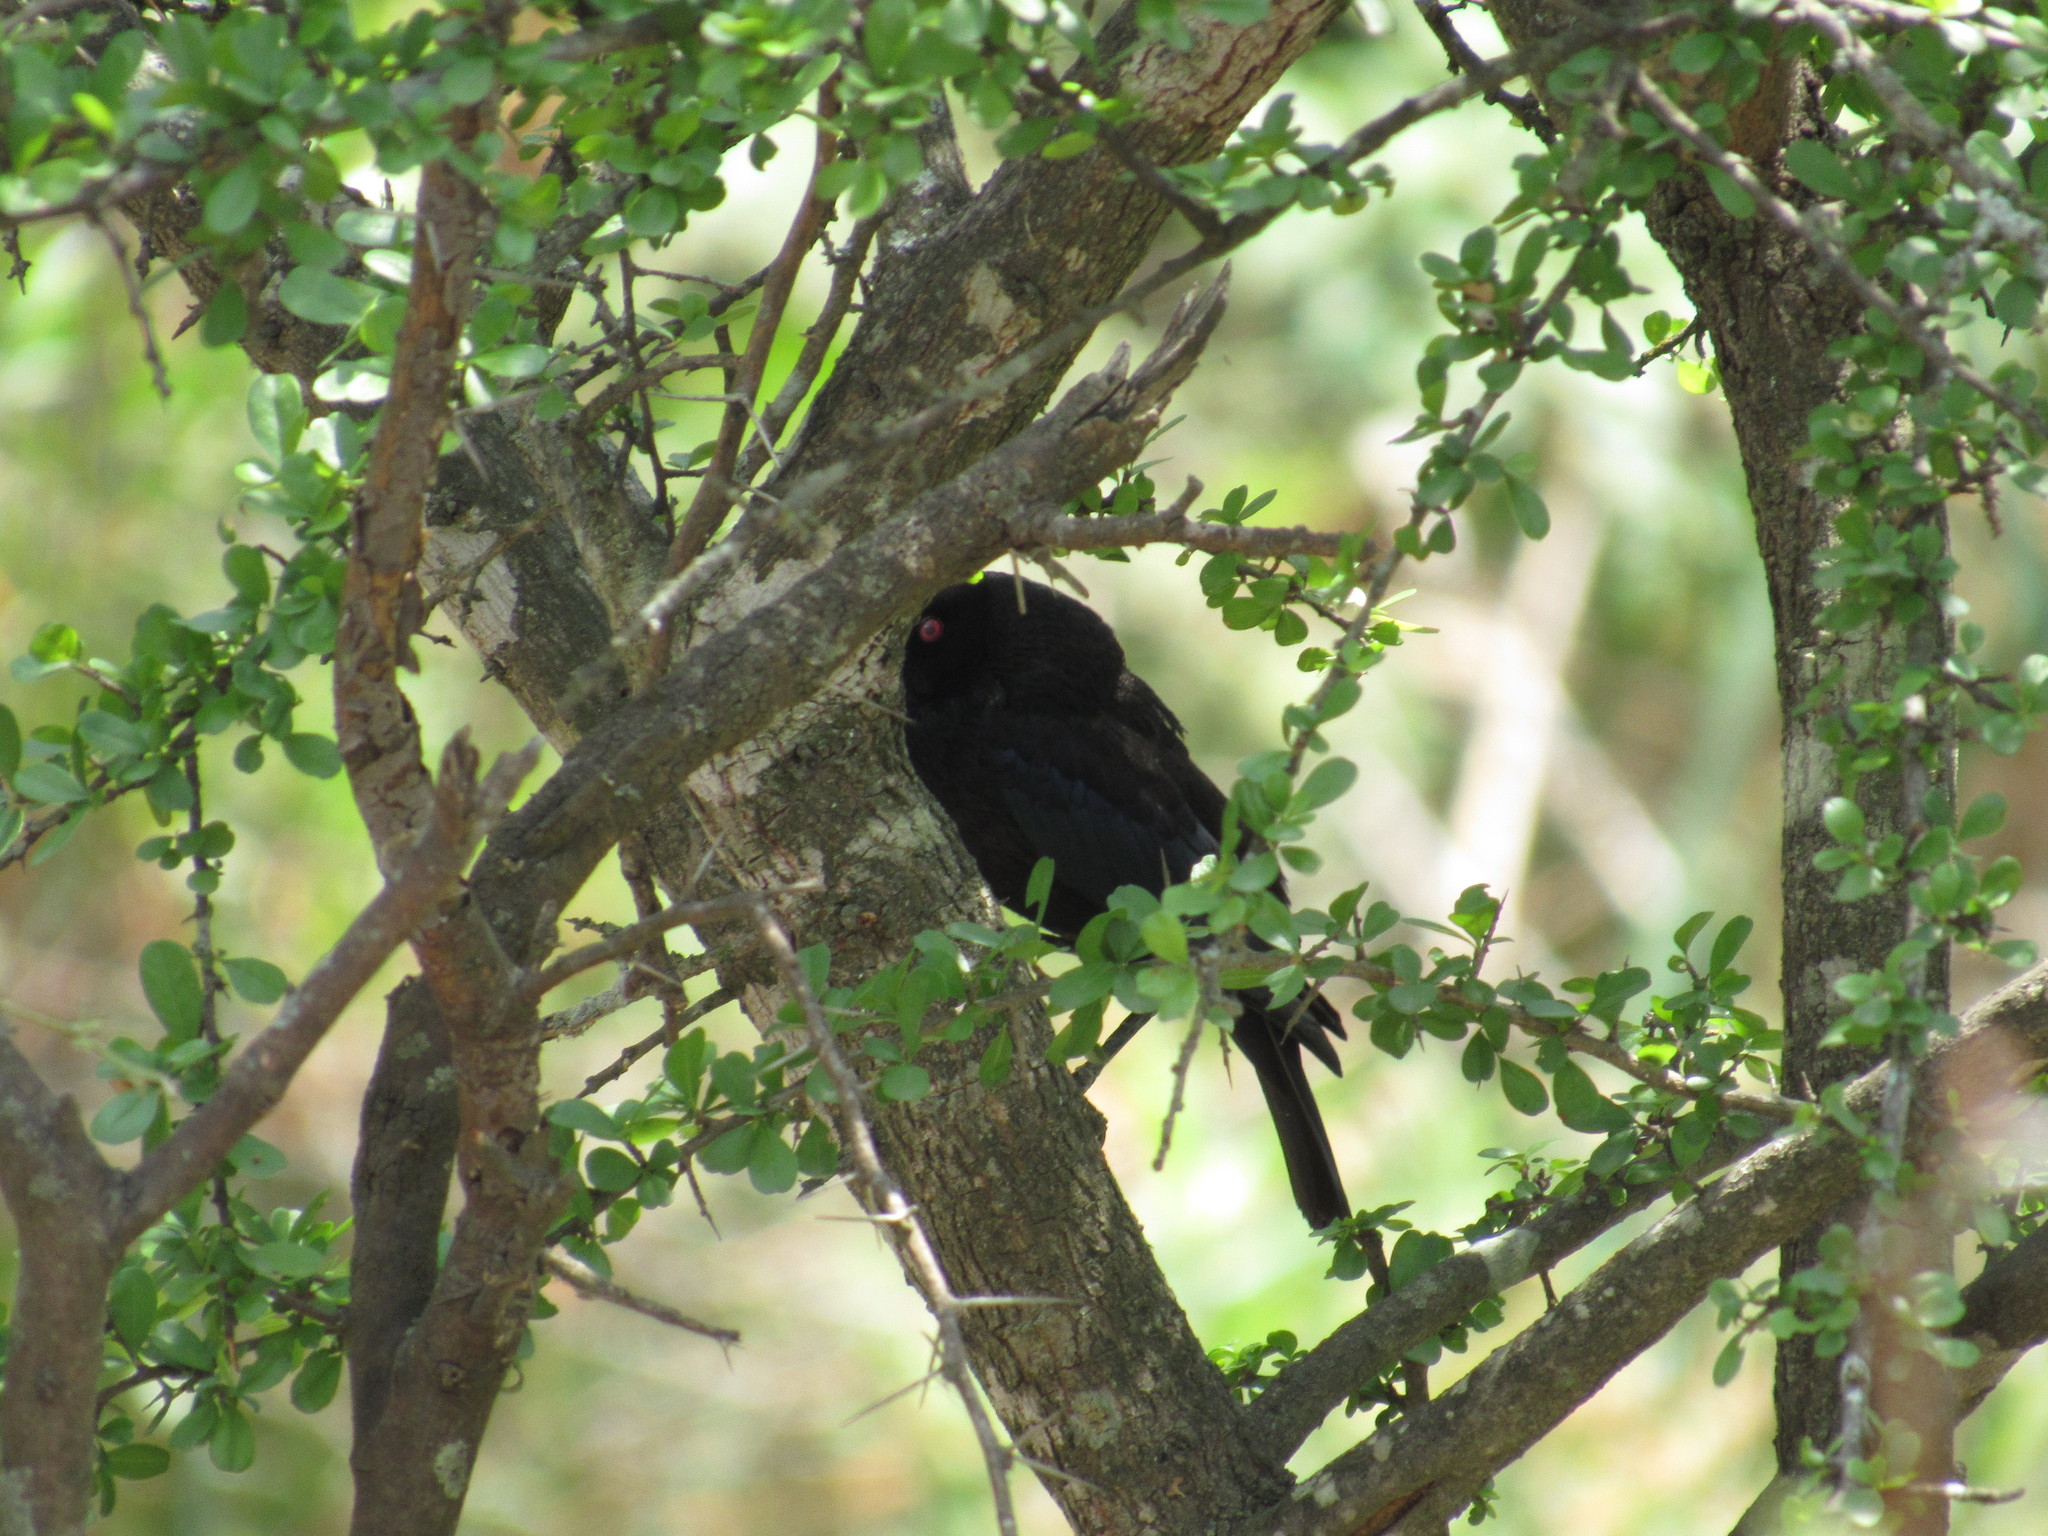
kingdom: Animalia
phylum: Chordata
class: Aves
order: Passeriformes
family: Icteridae
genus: Molothrus
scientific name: Molothrus aeneus
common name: Bronzed cowbird
